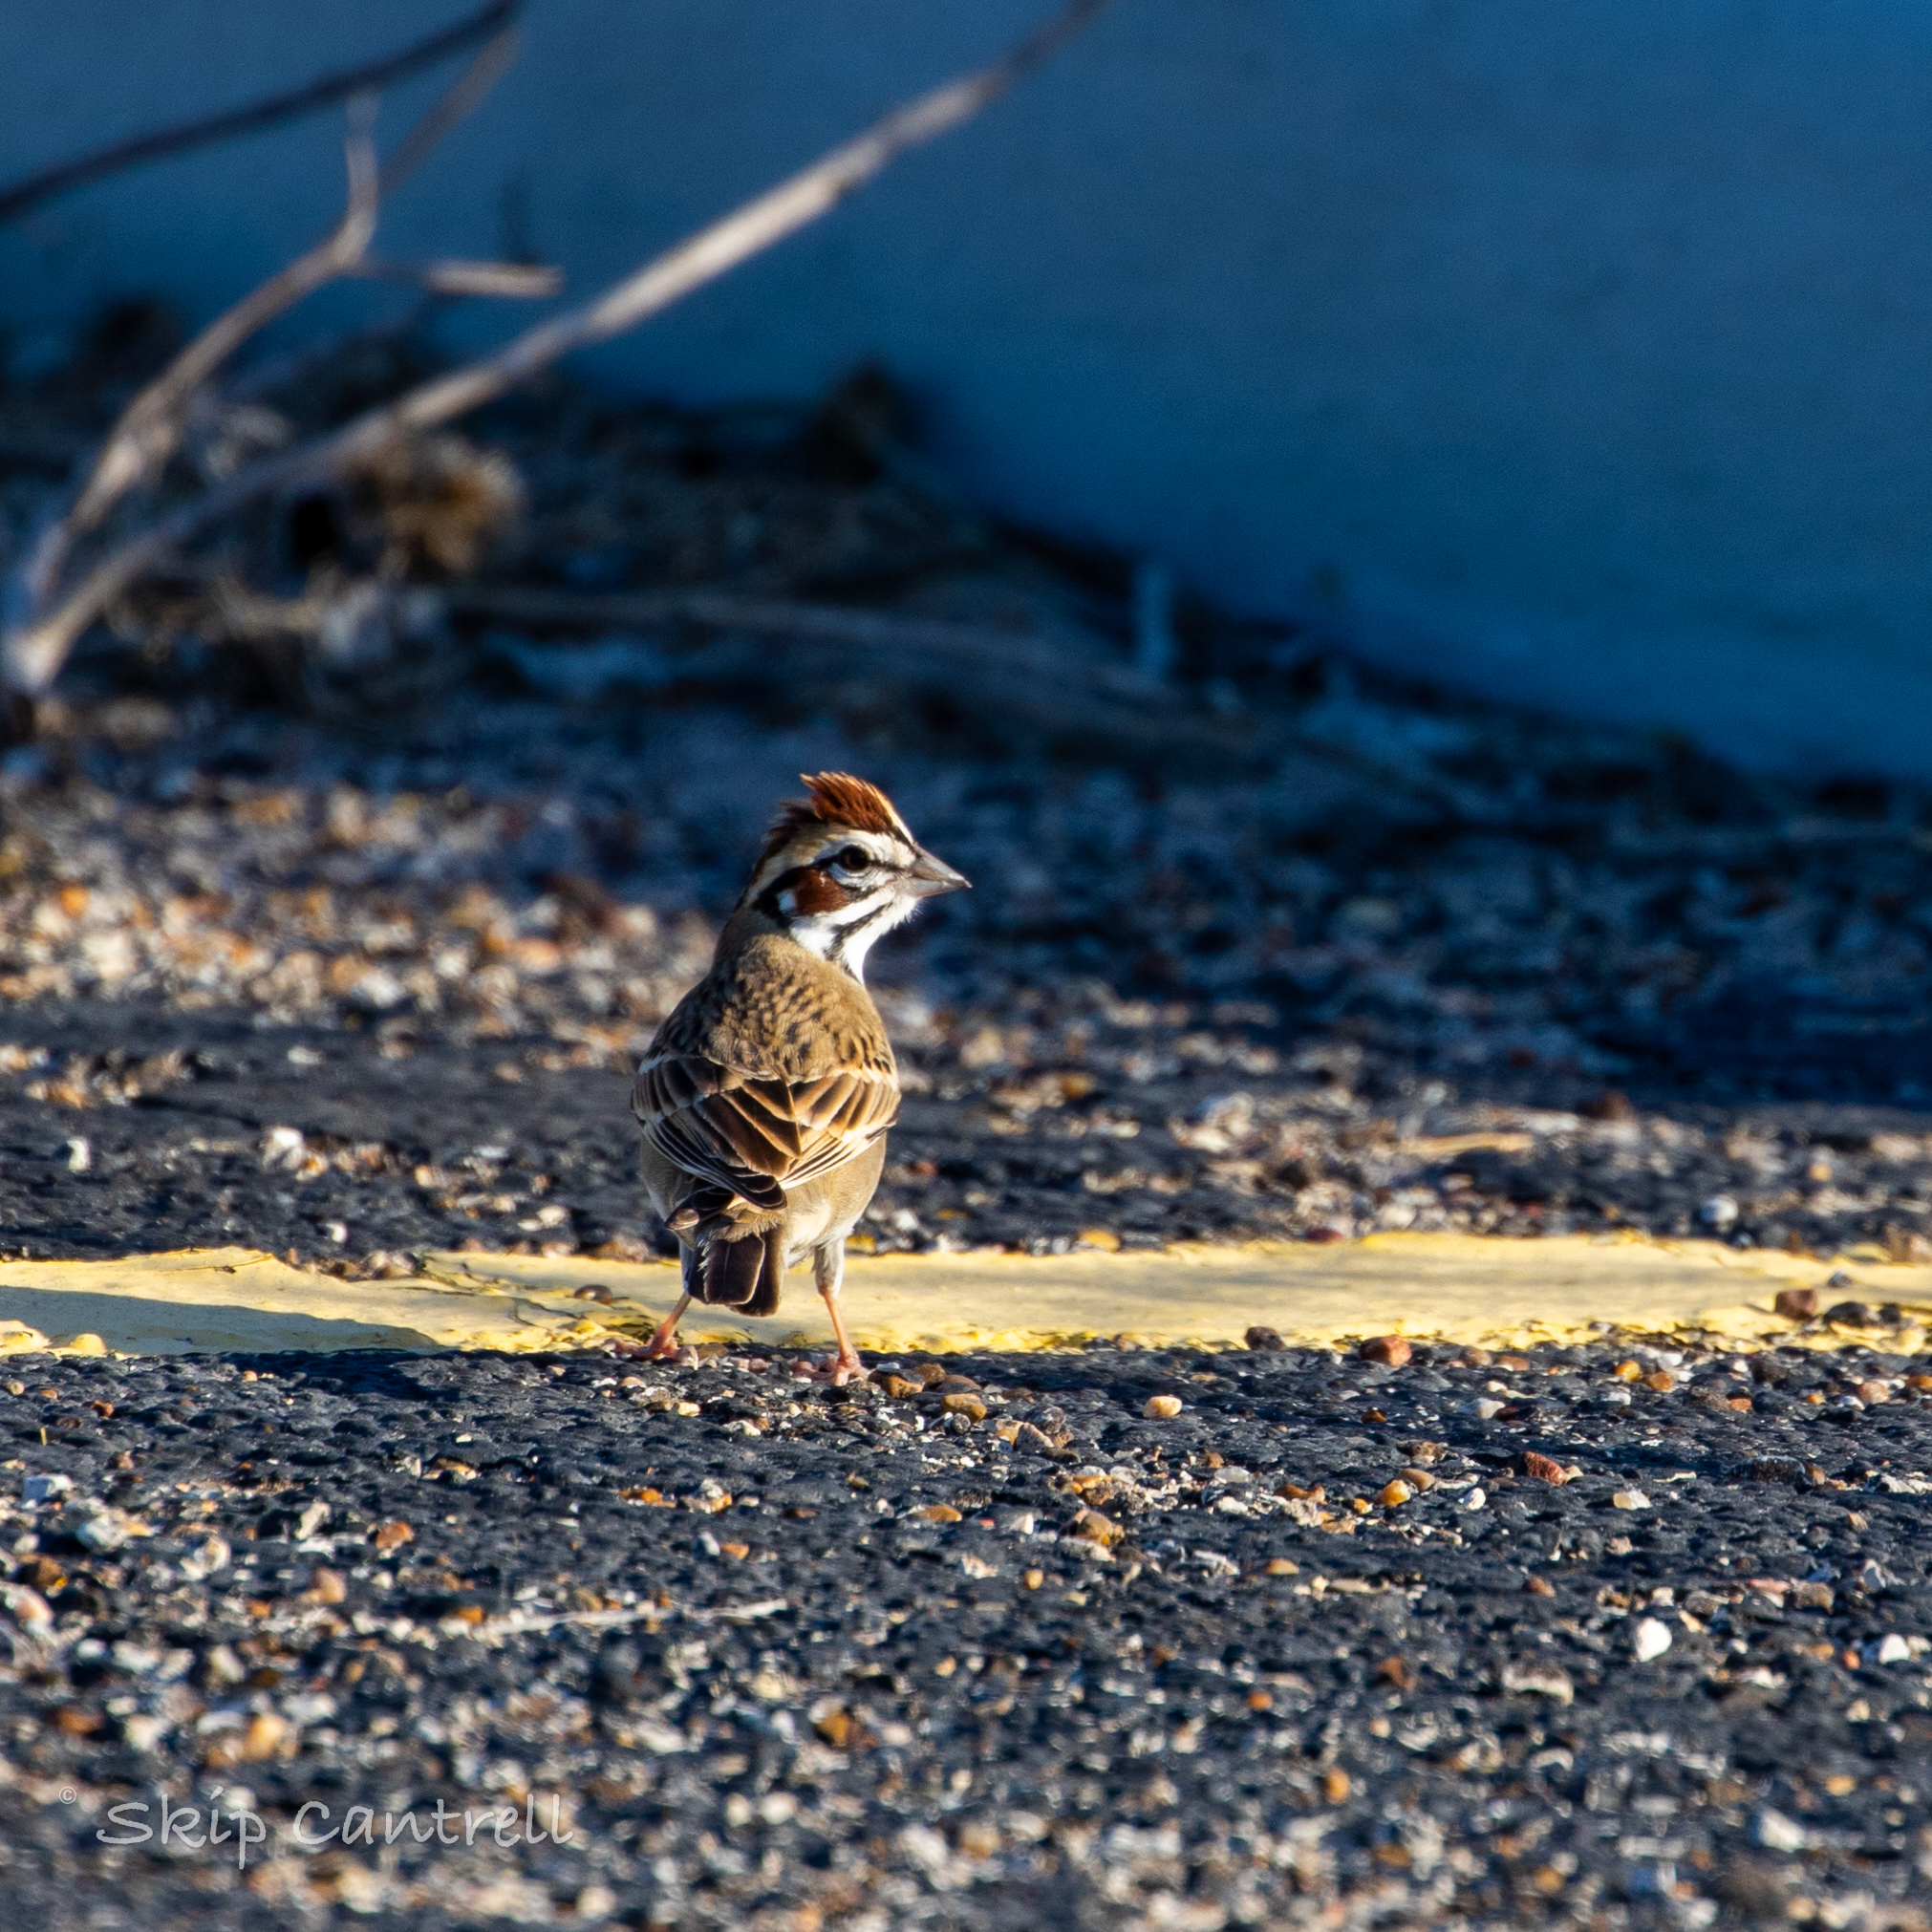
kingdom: Animalia
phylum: Chordata
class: Aves
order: Passeriformes
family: Passerellidae
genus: Chondestes
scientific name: Chondestes grammacus
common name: Lark sparrow
